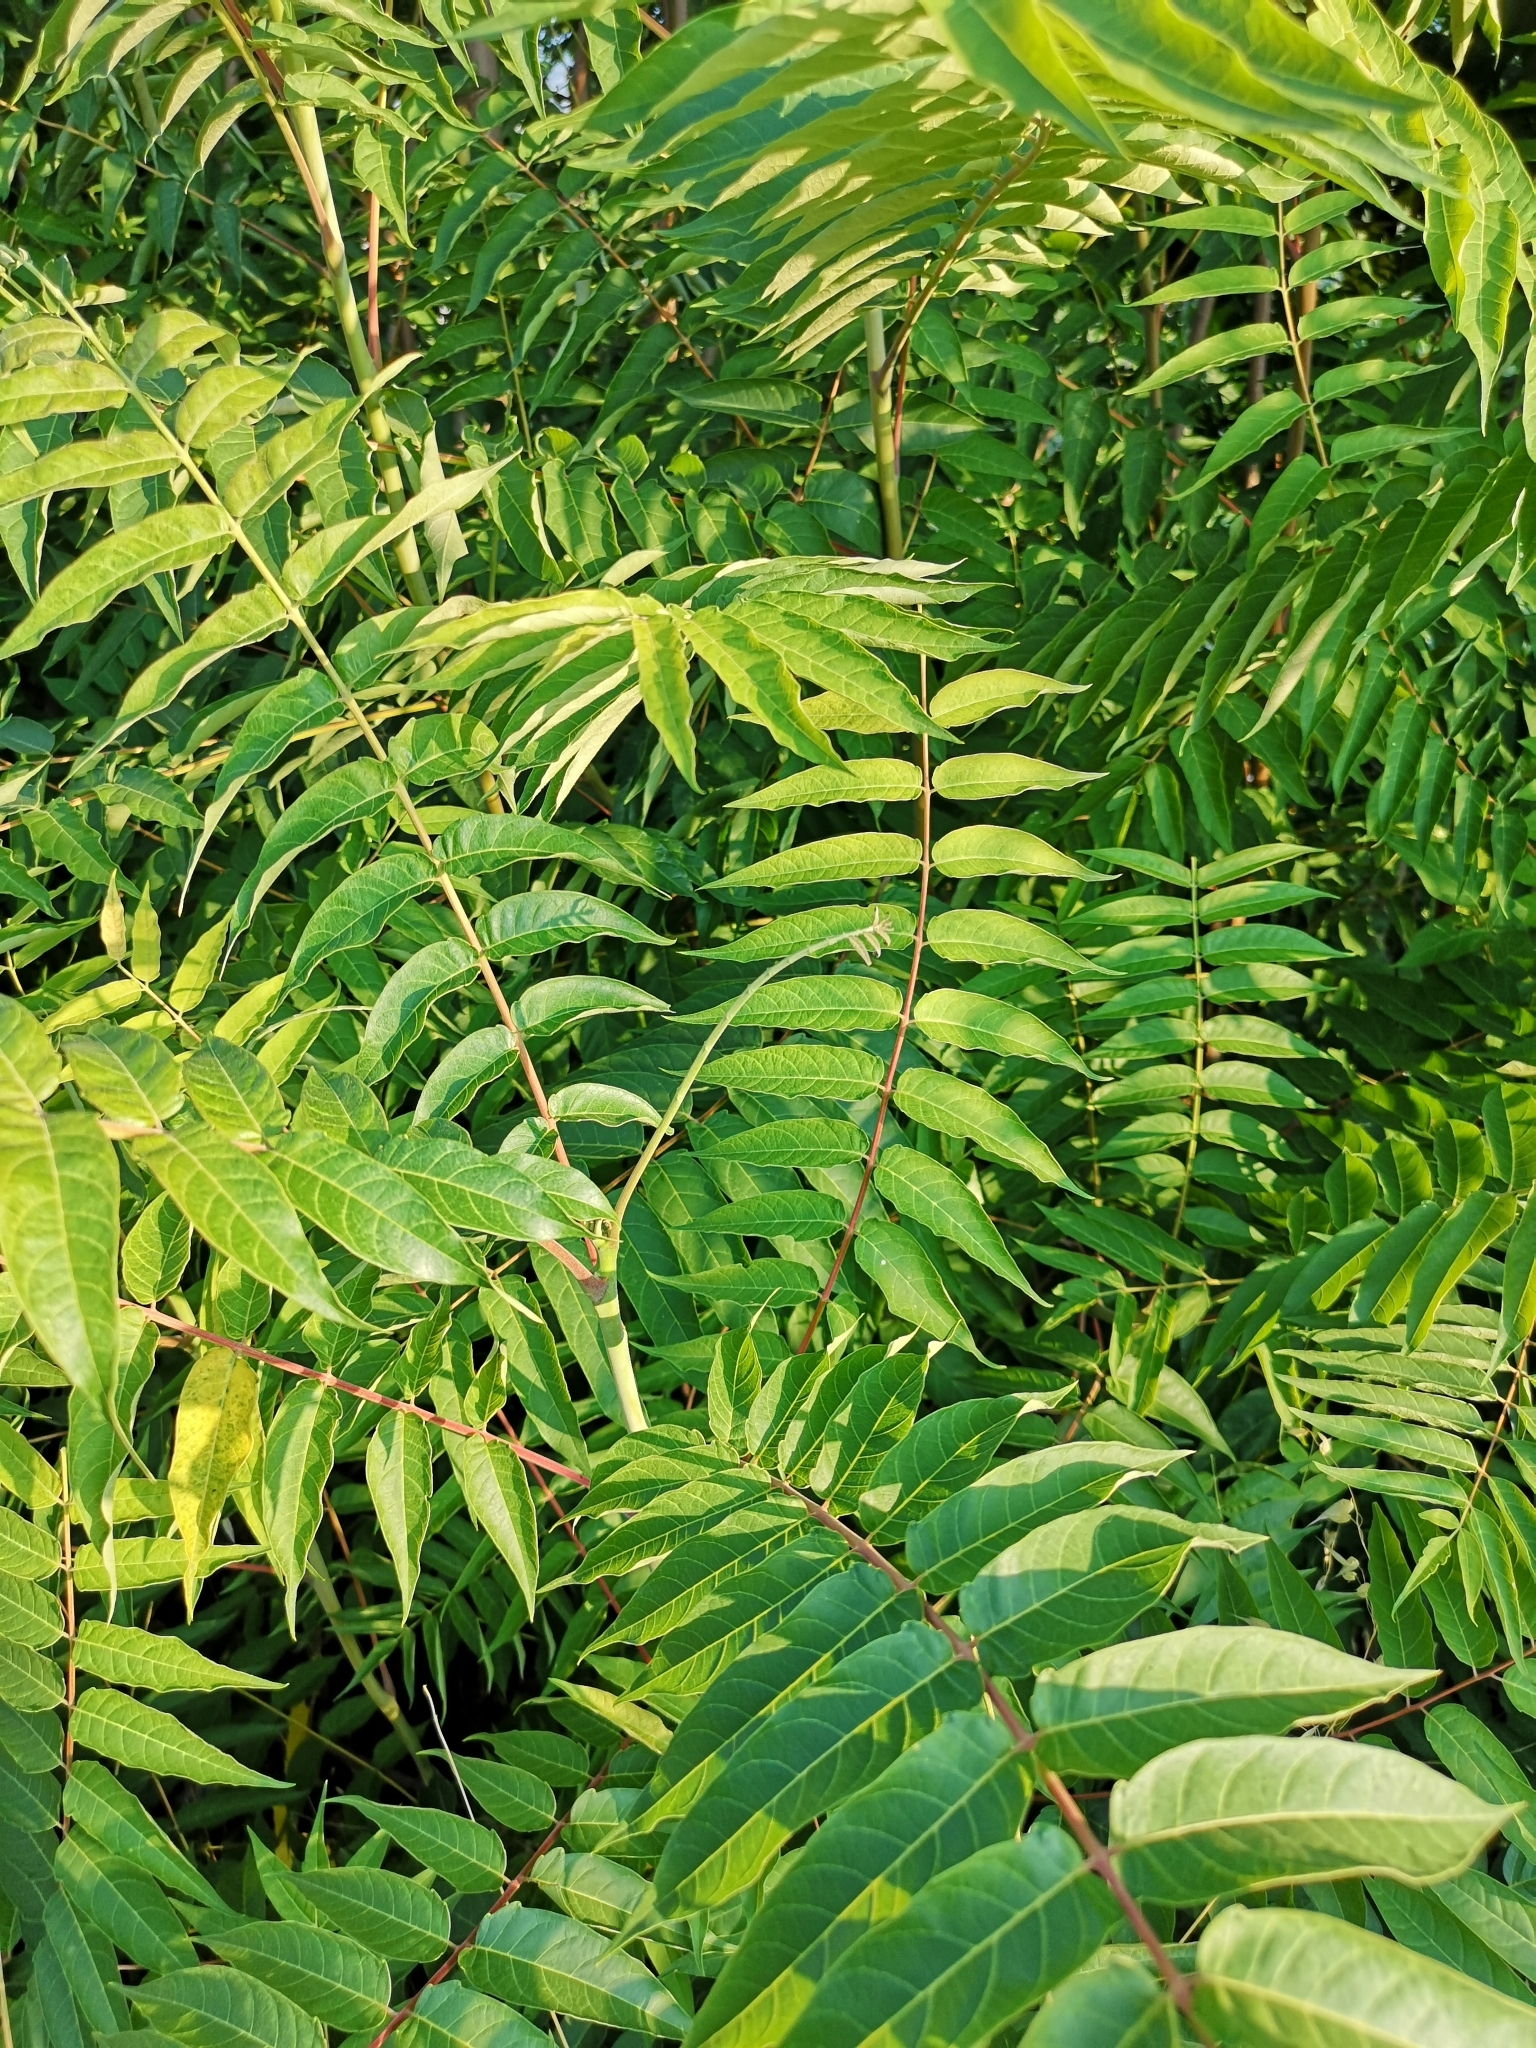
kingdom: Plantae
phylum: Tracheophyta
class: Magnoliopsida
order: Sapindales
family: Simaroubaceae
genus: Ailanthus
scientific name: Ailanthus altissima
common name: Tree-of-heaven
